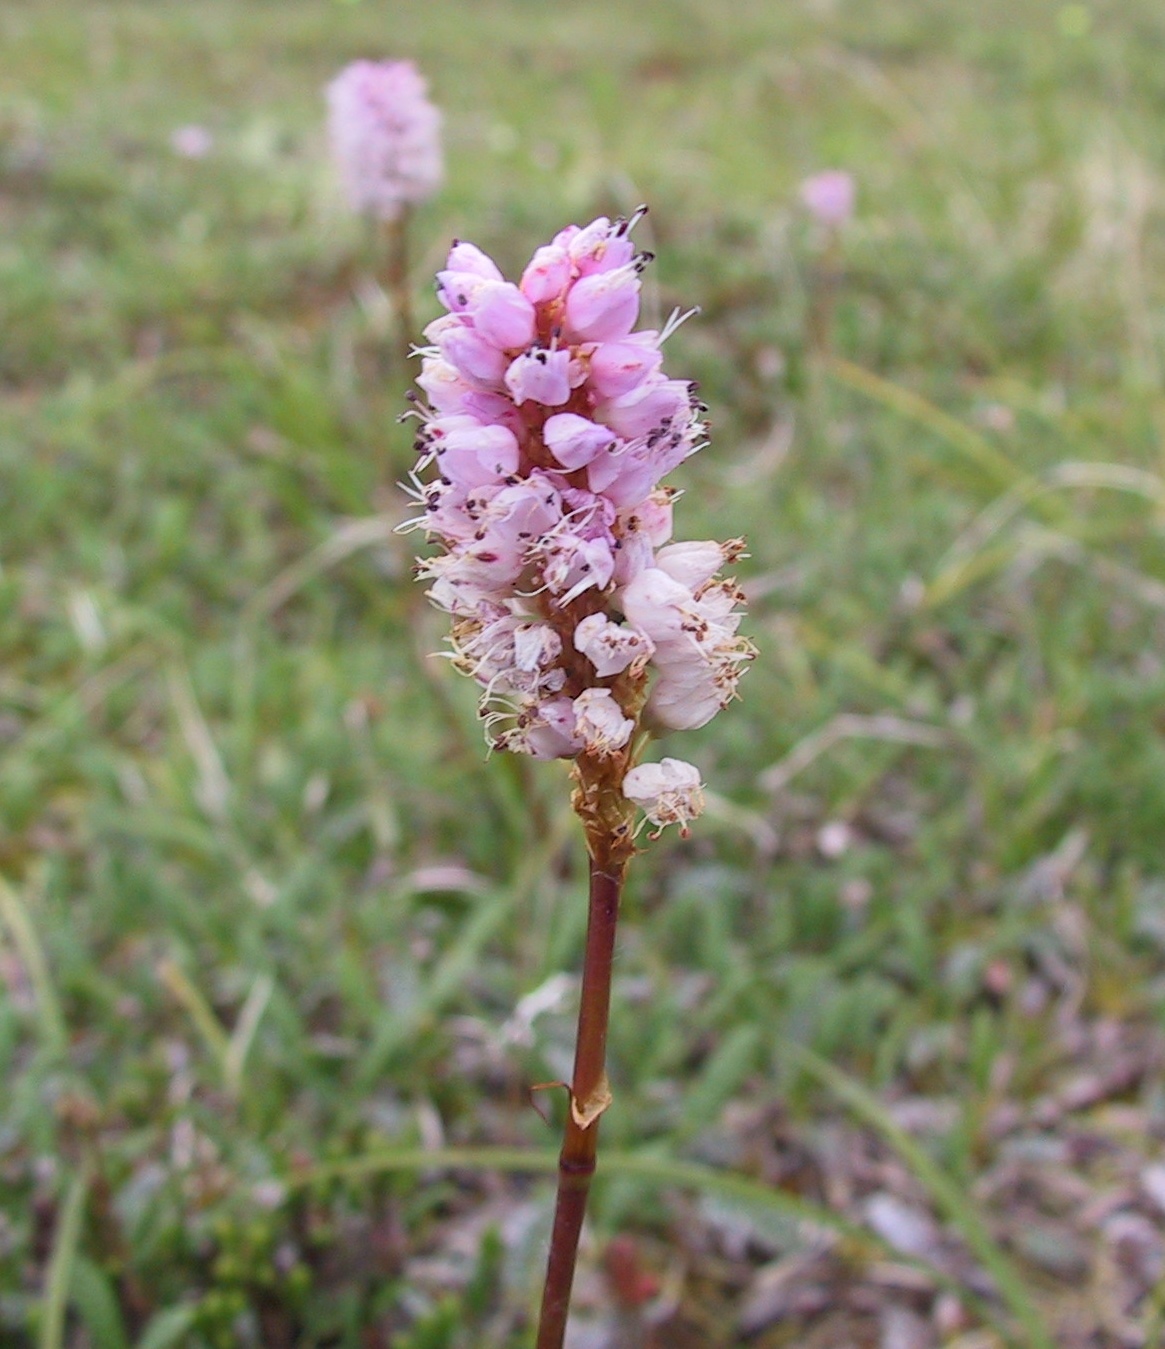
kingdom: Plantae
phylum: Tracheophyta
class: Magnoliopsida
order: Caryophyllales
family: Polygonaceae
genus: Bistorta
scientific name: Bistorta plumosa
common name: Meadow bistort
